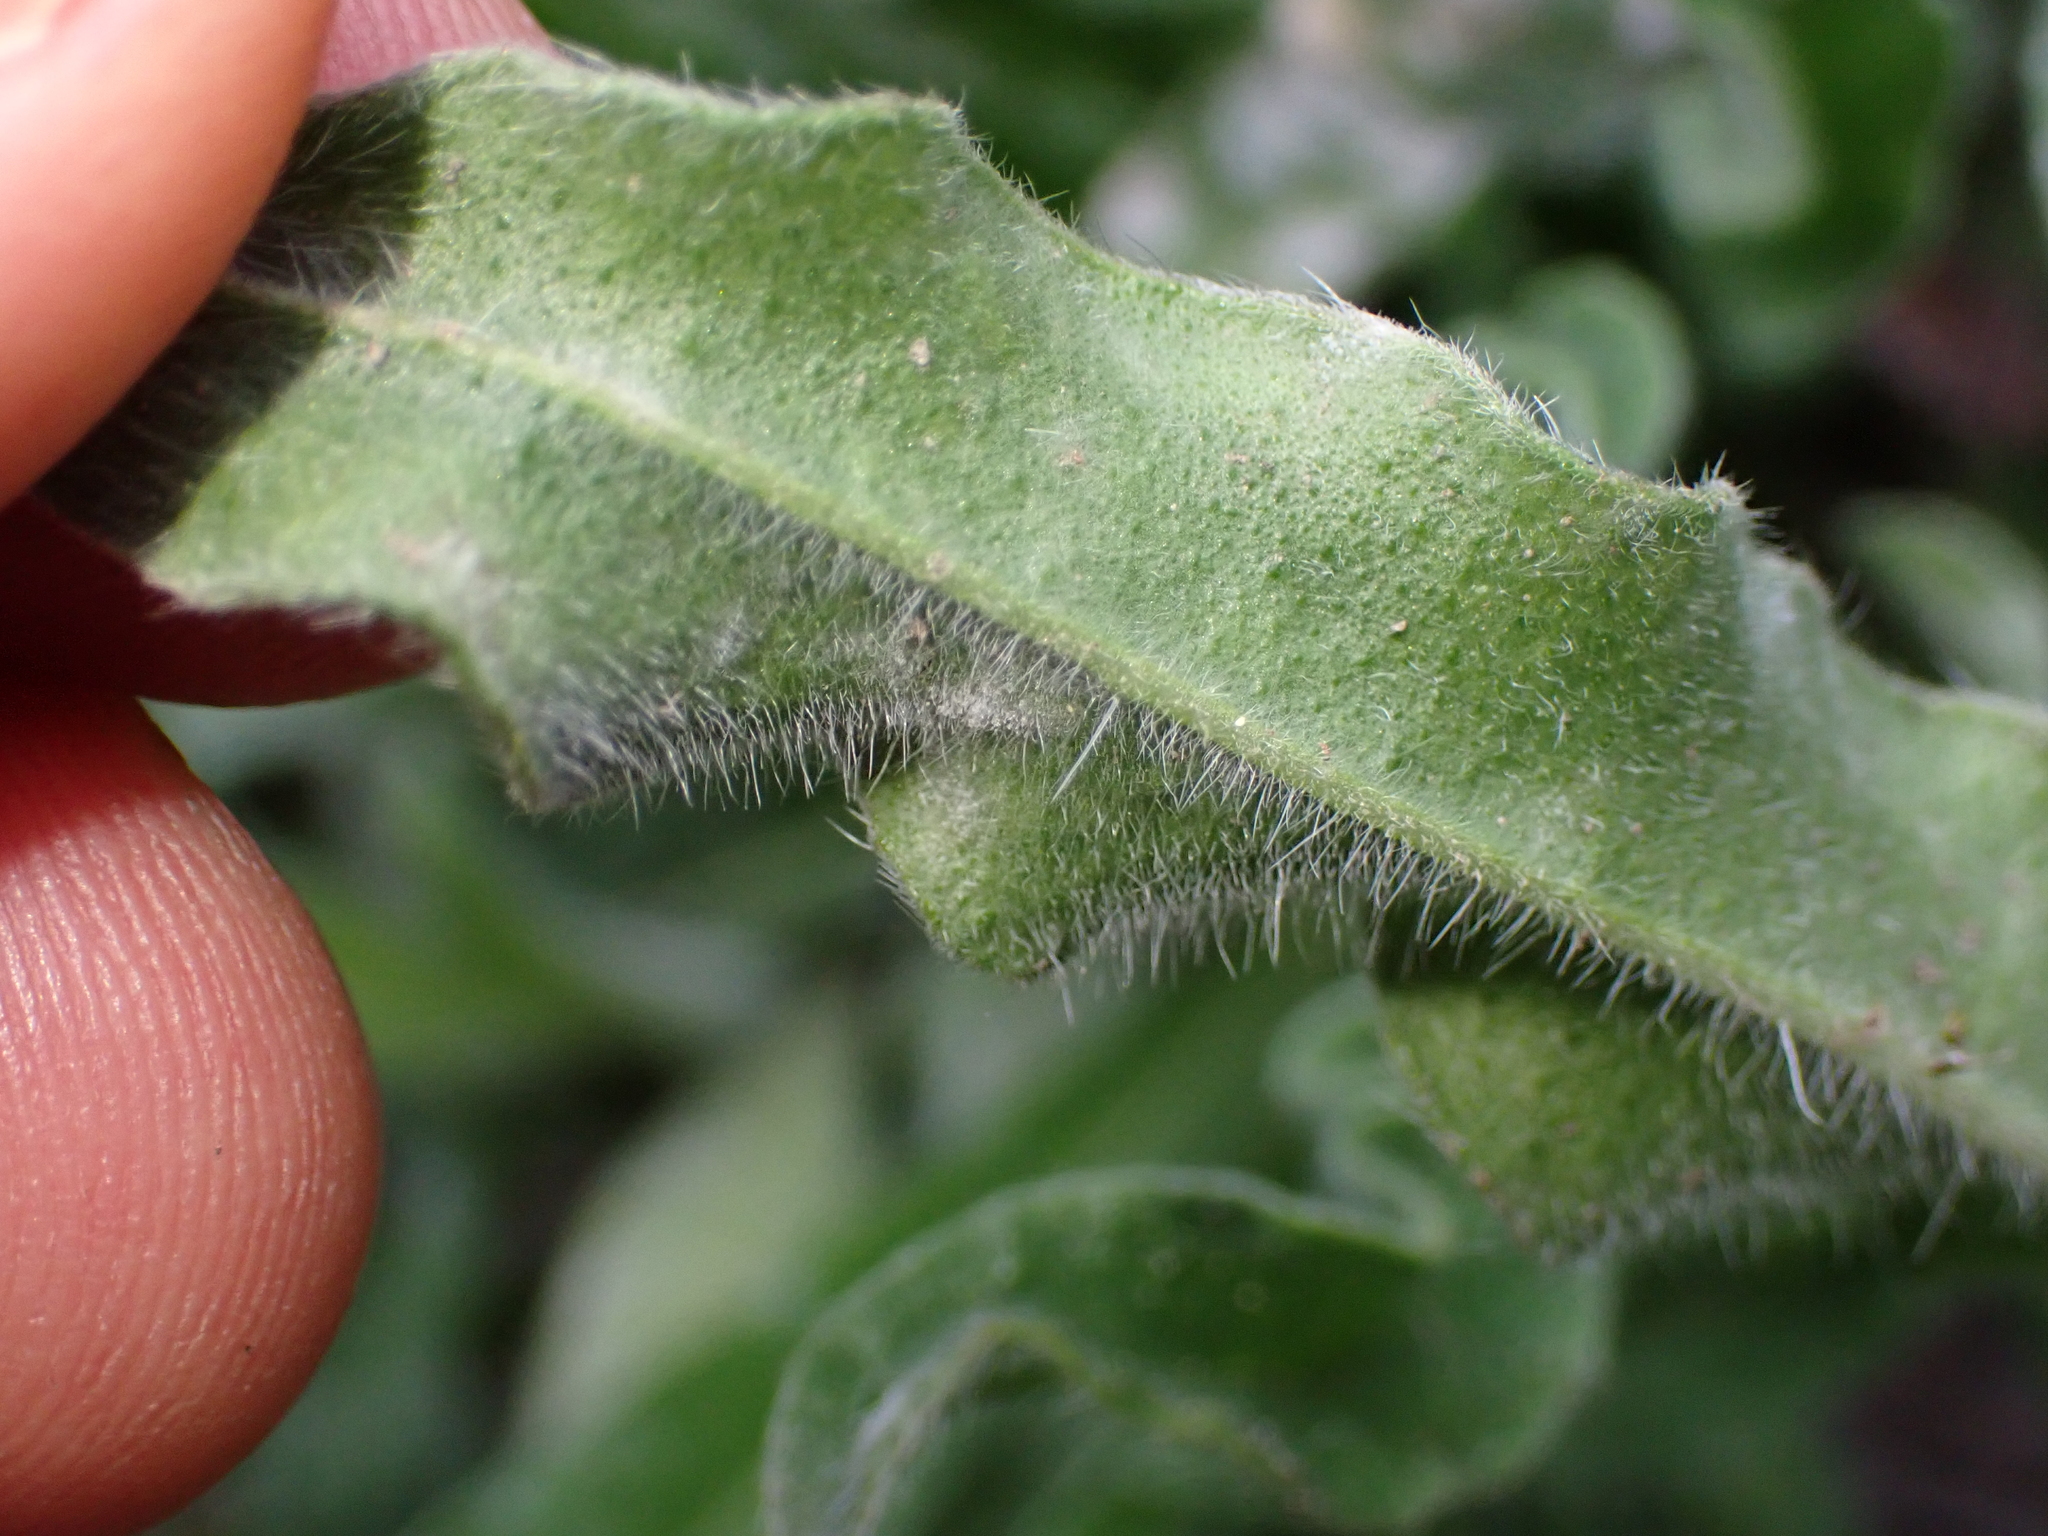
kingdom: Plantae
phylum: Tracheophyta
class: Magnoliopsida
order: Boraginales
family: Boraginaceae
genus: Echium
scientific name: Echium vulgare
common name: Common viper's bugloss
